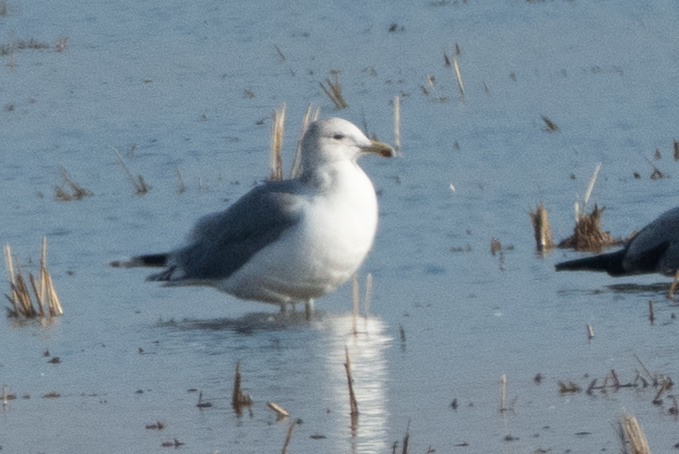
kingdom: Animalia
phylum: Chordata
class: Aves
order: Charadriiformes
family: Laridae
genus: Larus
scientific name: Larus californicus
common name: California gull
